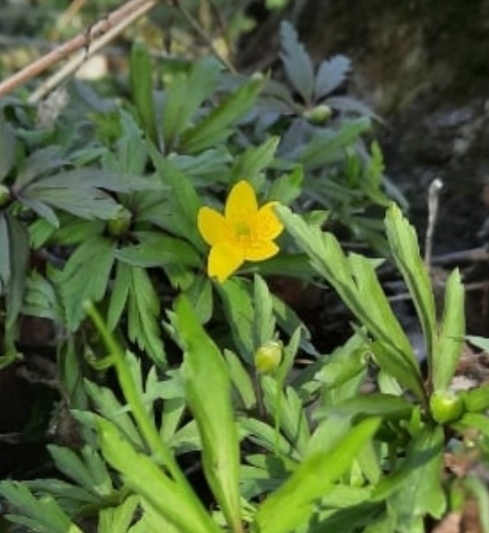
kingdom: Plantae
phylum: Tracheophyta
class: Magnoliopsida
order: Ranunculales
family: Ranunculaceae
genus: Anemone
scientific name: Anemone ranunculoides
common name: Yellow anemone
